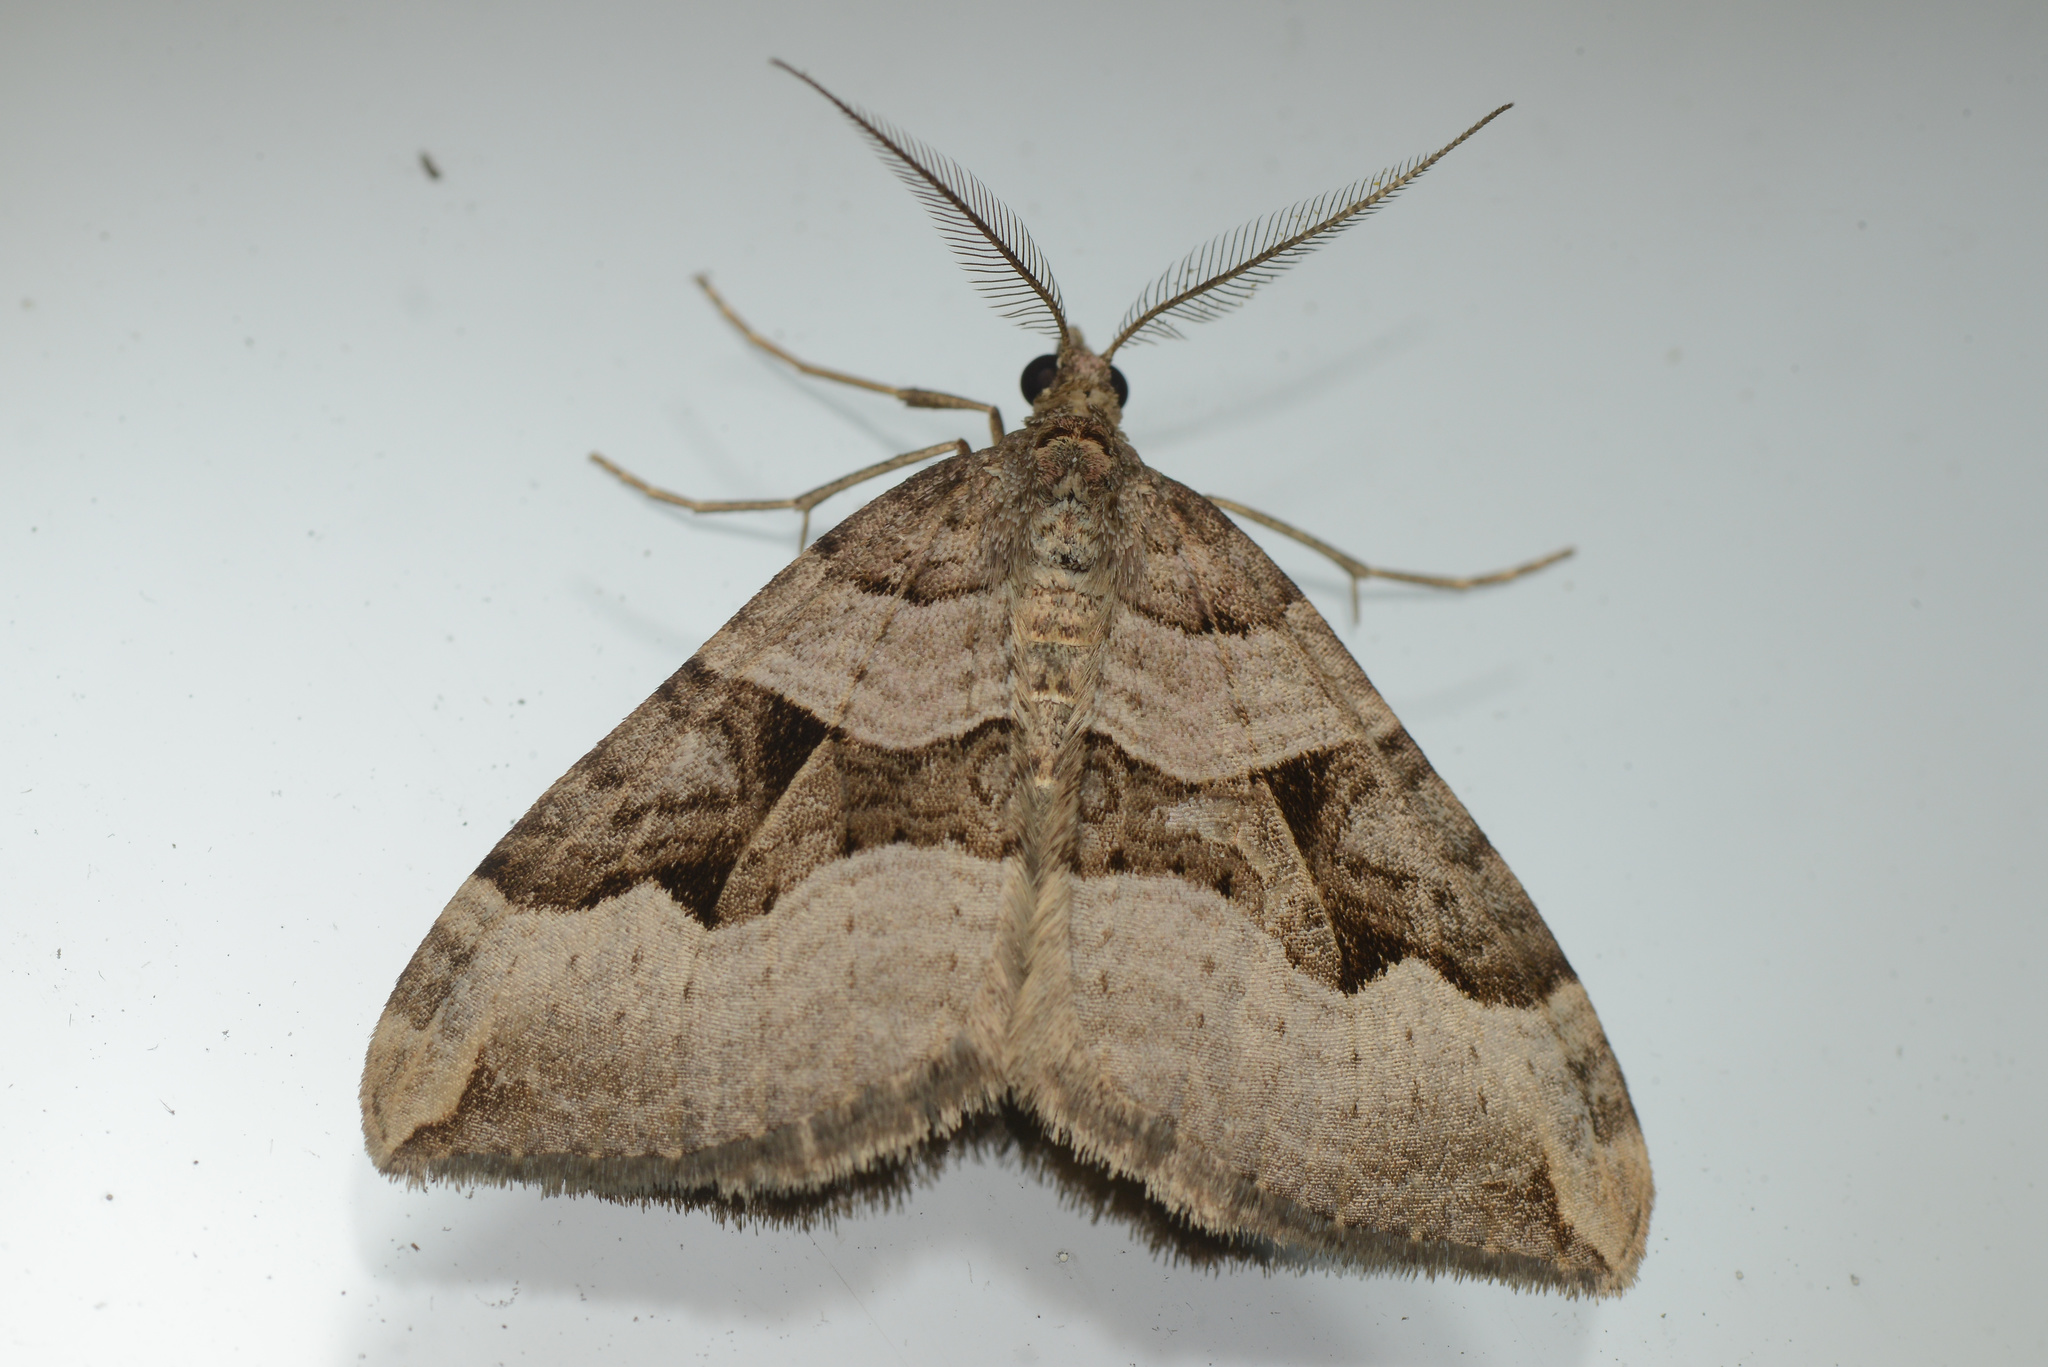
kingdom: Animalia
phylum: Arthropoda
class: Insecta
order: Lepidoptera
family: Geometridae
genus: Xanthorhoe
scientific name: Xanthorhoe semifissata
